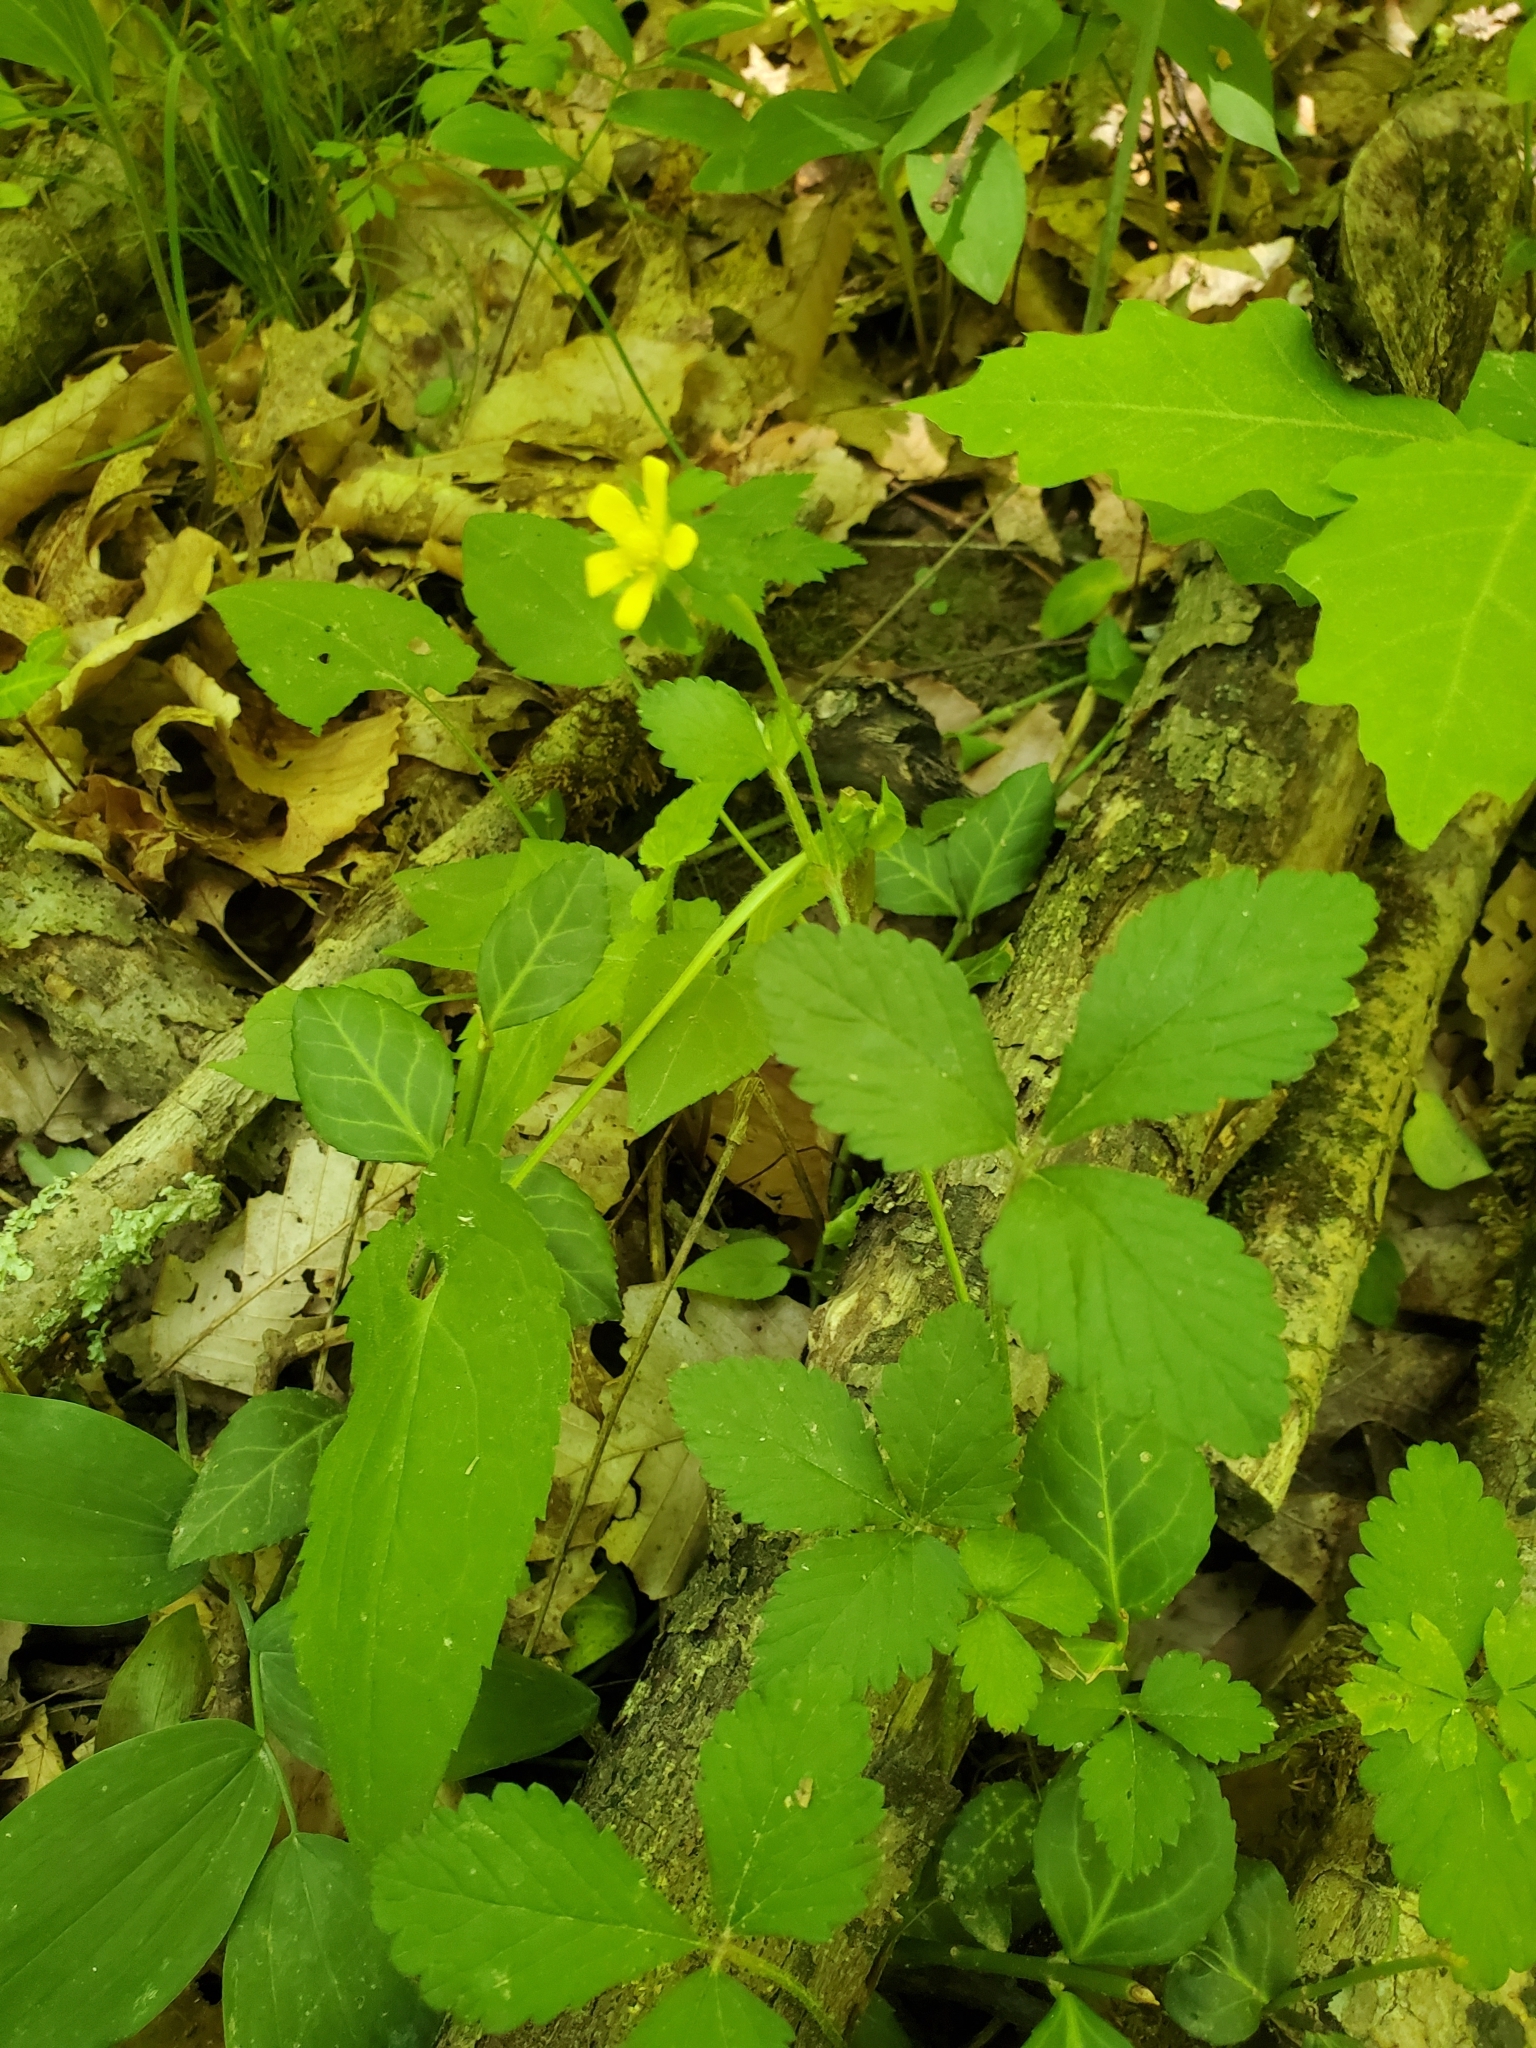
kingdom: Plantae
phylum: Tracheophyta
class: Magnoliopsida
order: Rosales
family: Rosaceae
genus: Potentilla
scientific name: Potentilla indica
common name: Yellow-flowered strawberry
